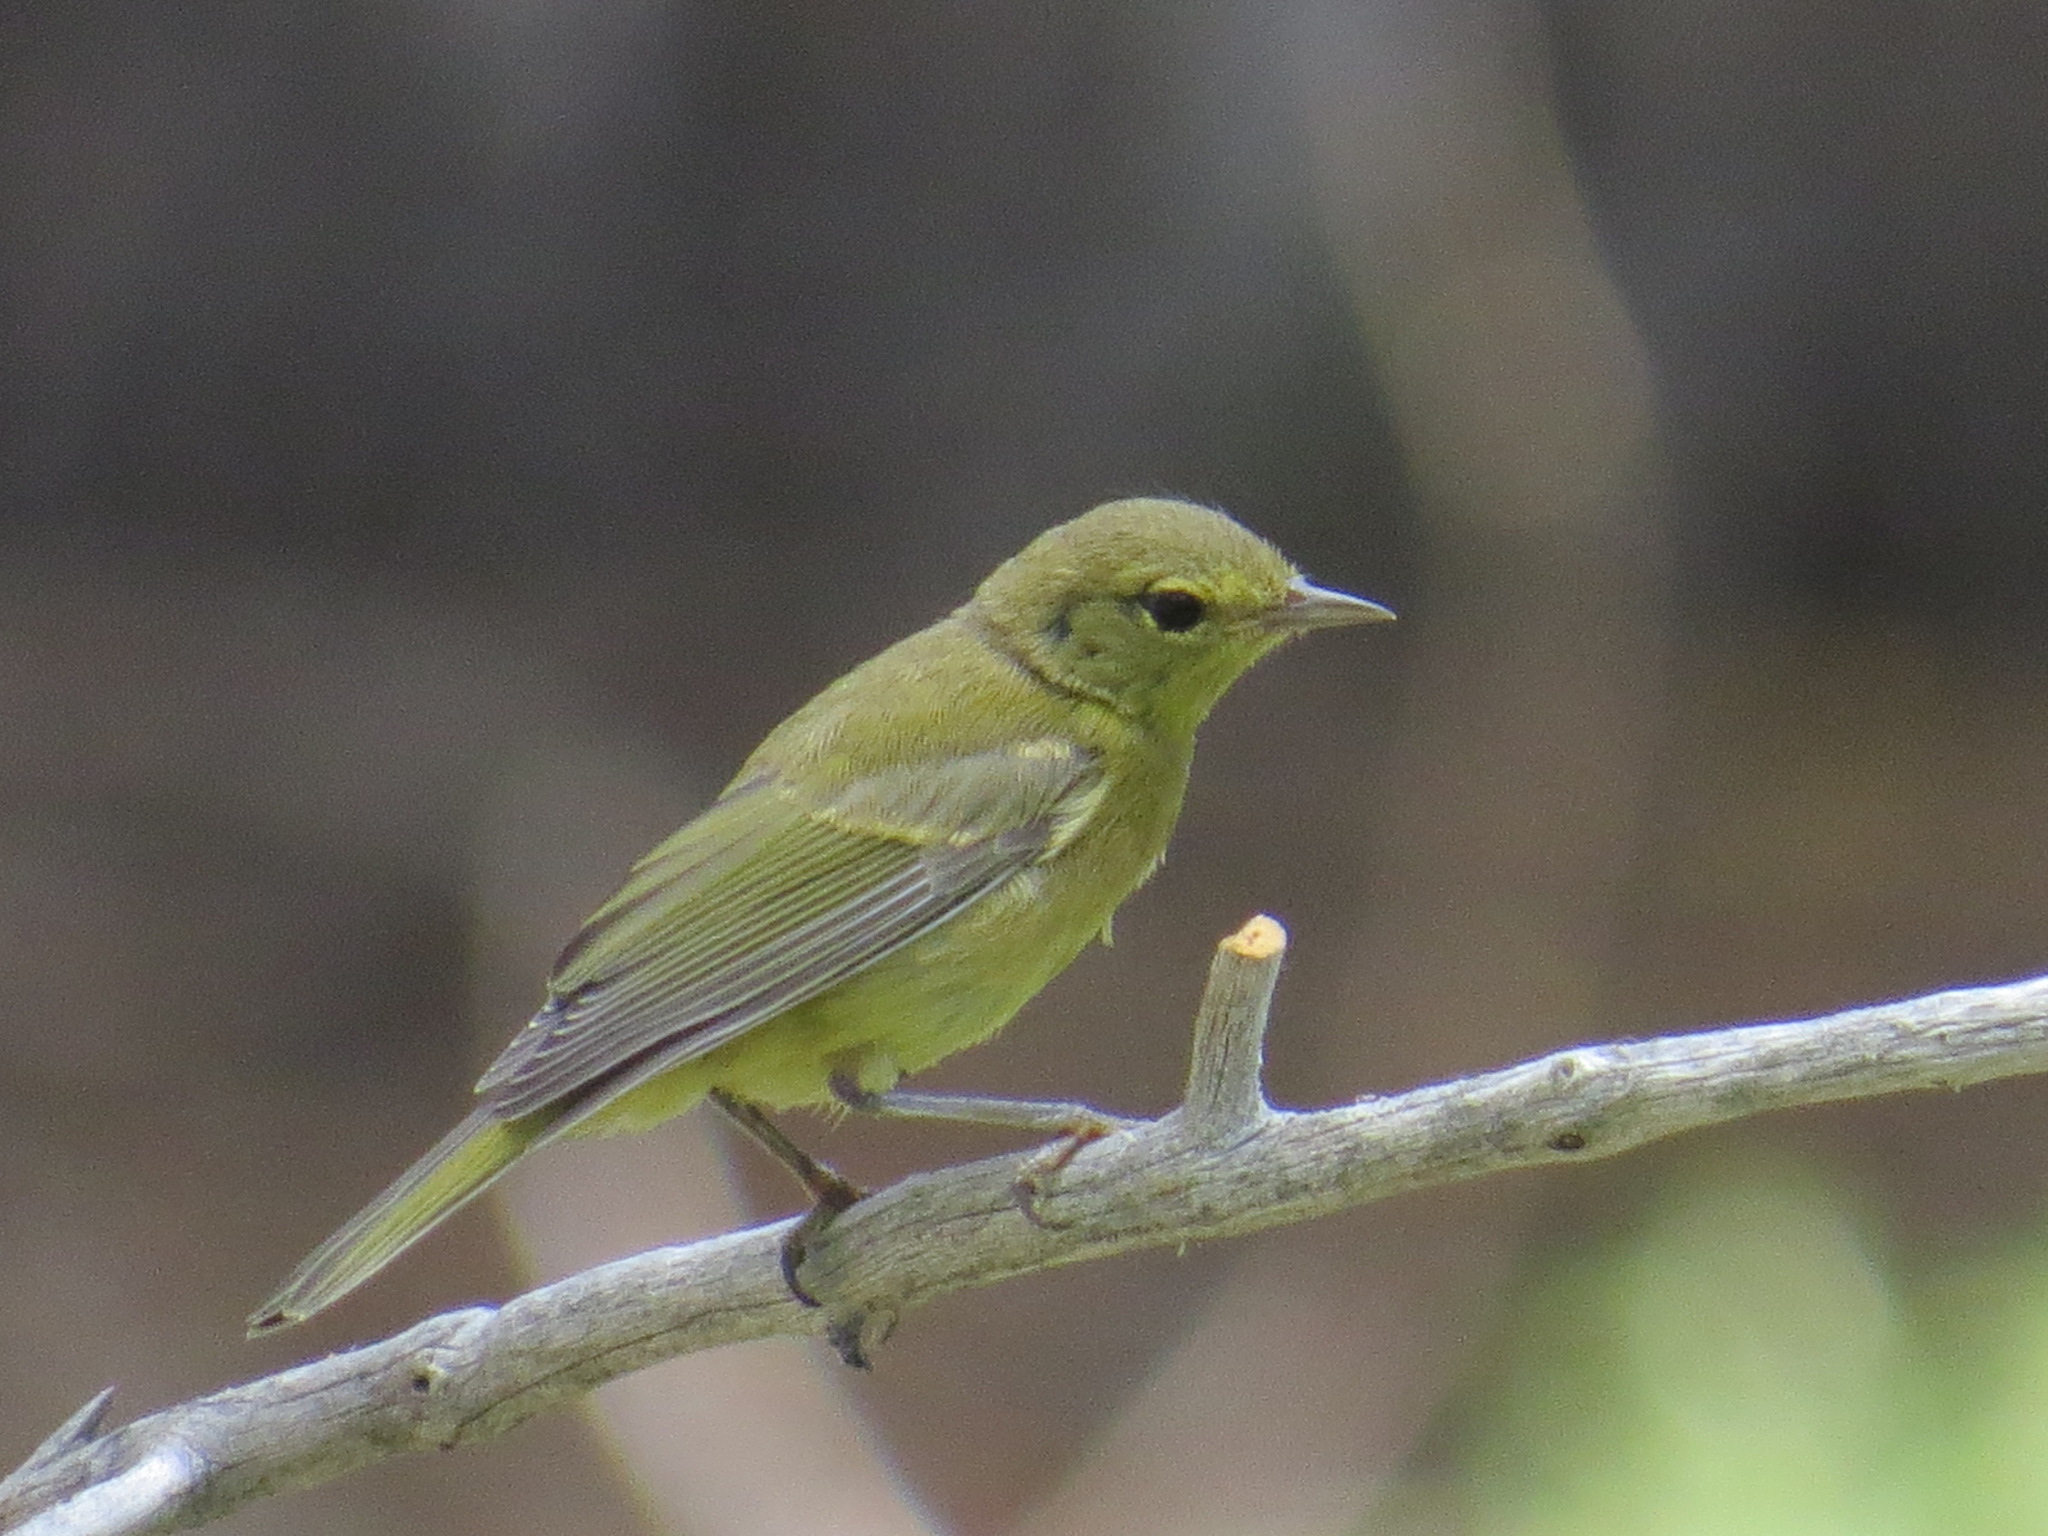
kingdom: Animalia
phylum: Chordata
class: Aves
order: Passeriformes
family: Parulidae
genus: Leiothlypis
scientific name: Leiothlypis celata
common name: Orange-crowned warbler
